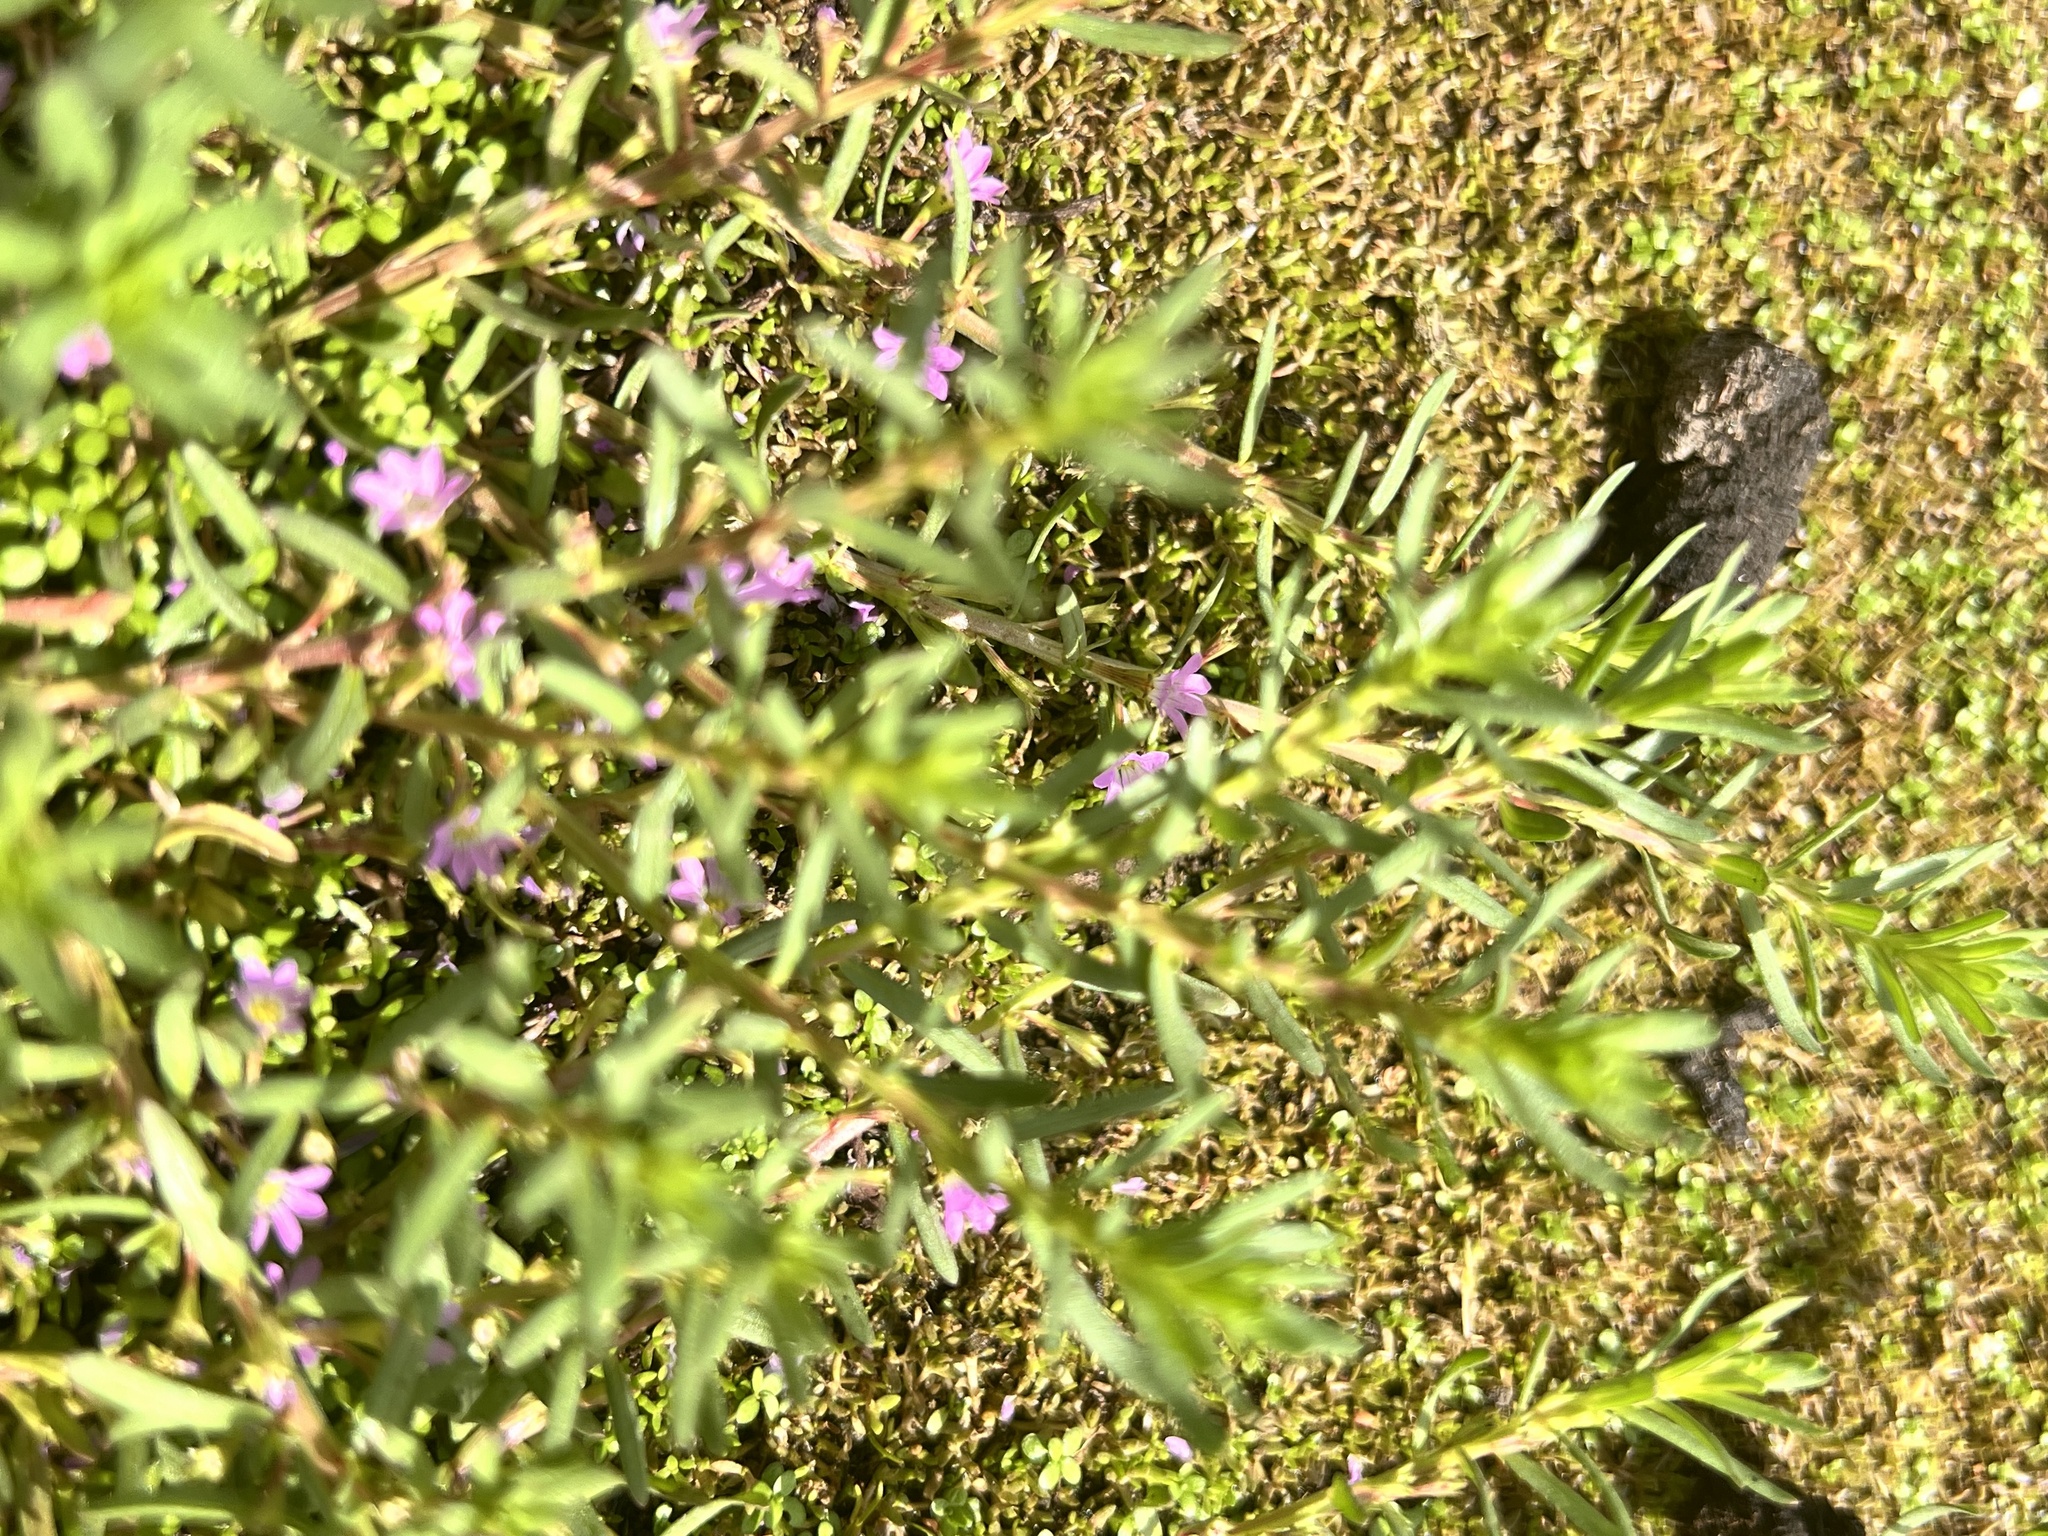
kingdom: Plantae
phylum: Tracheophyta
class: Magnoliopsida
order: Myrtales
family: Lythraceae
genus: Lythrum
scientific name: Lythrum hyssopifolia
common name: Grass-poly
